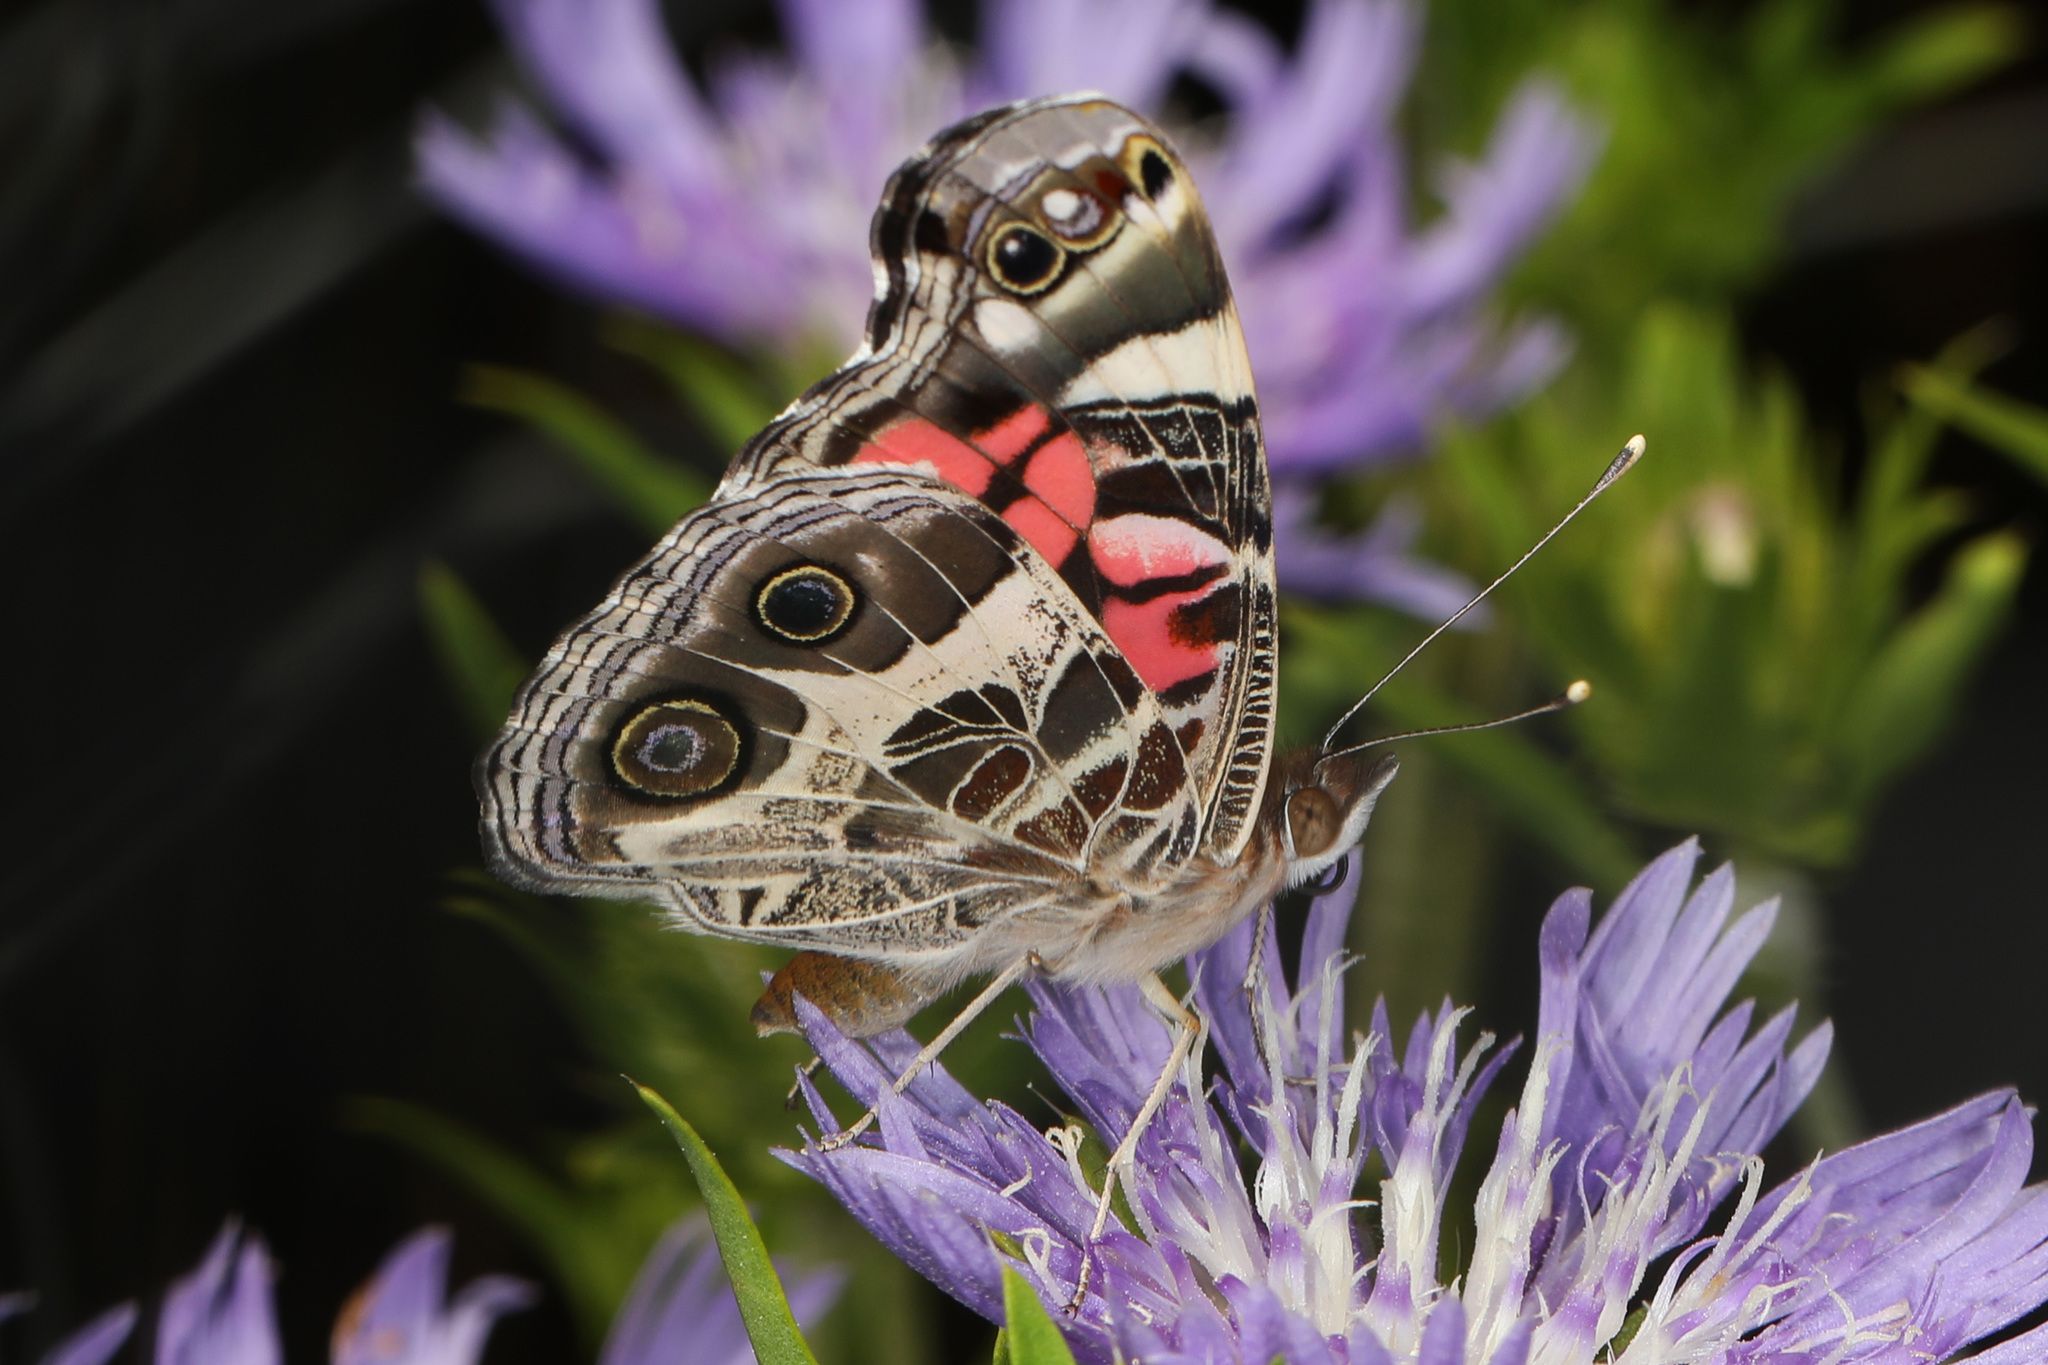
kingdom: Animalia
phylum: Arthropoda
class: Insecta
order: Lepidoptera
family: Nymphalidae
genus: Vanessa
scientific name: Vanessa virginiensis
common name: American lady
